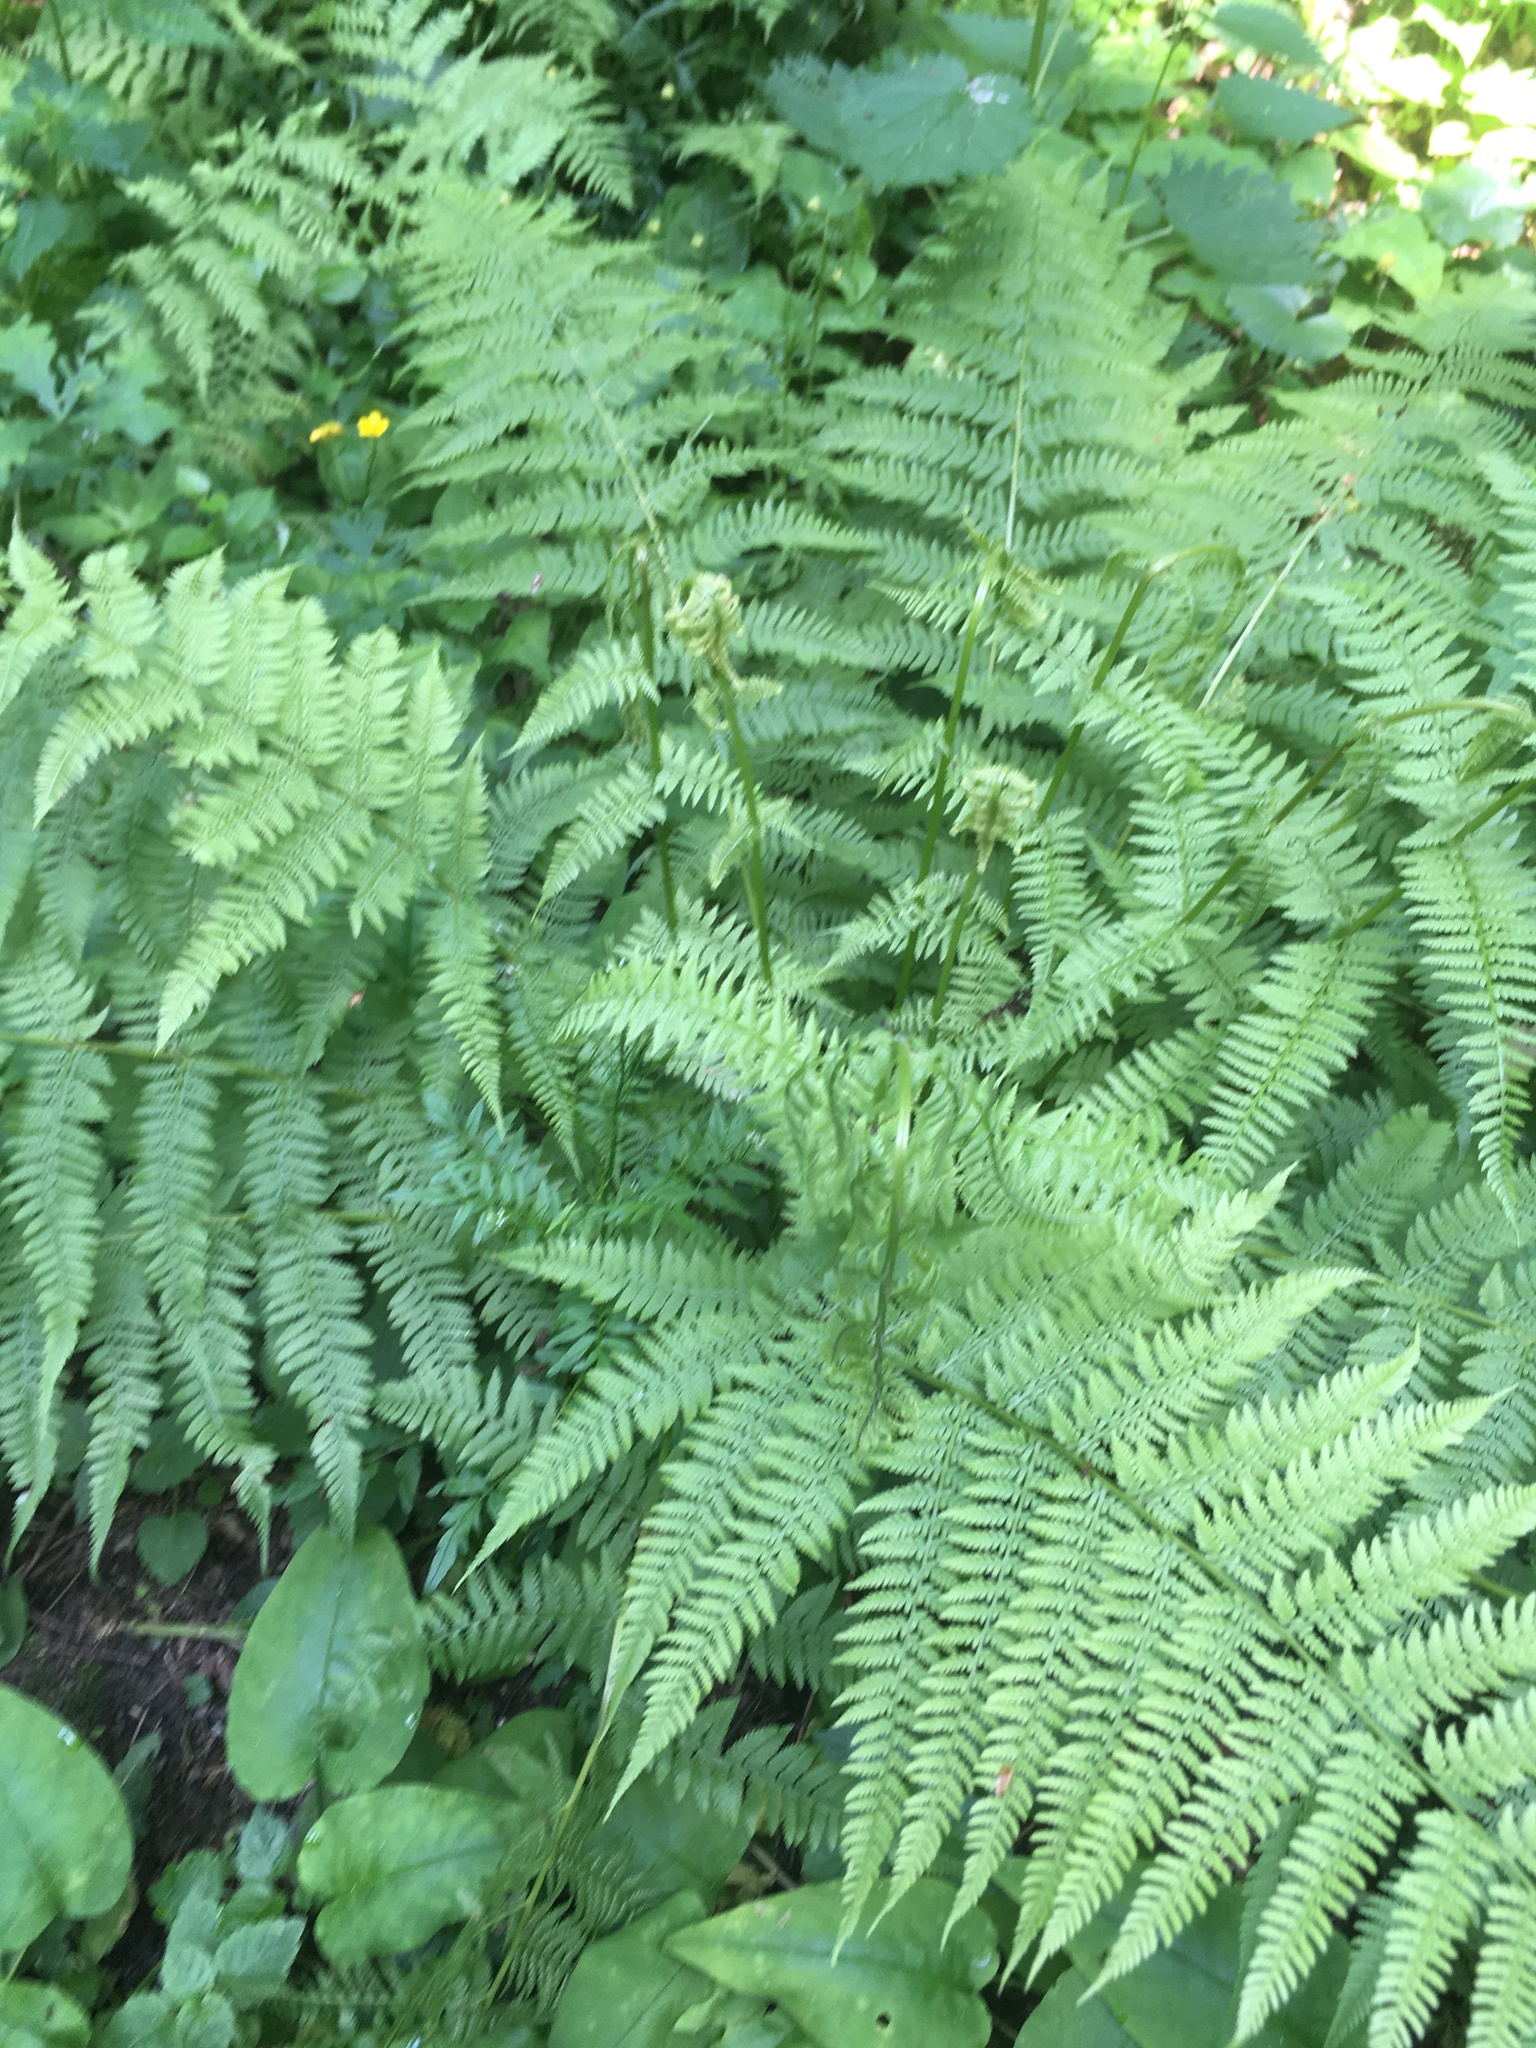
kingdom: Plantae
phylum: Tracheophyta
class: Polypodiopsida
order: Polypodiales
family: Athyriaceae
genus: Athyrium
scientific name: Athyrium filix-femina
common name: Lady fern
